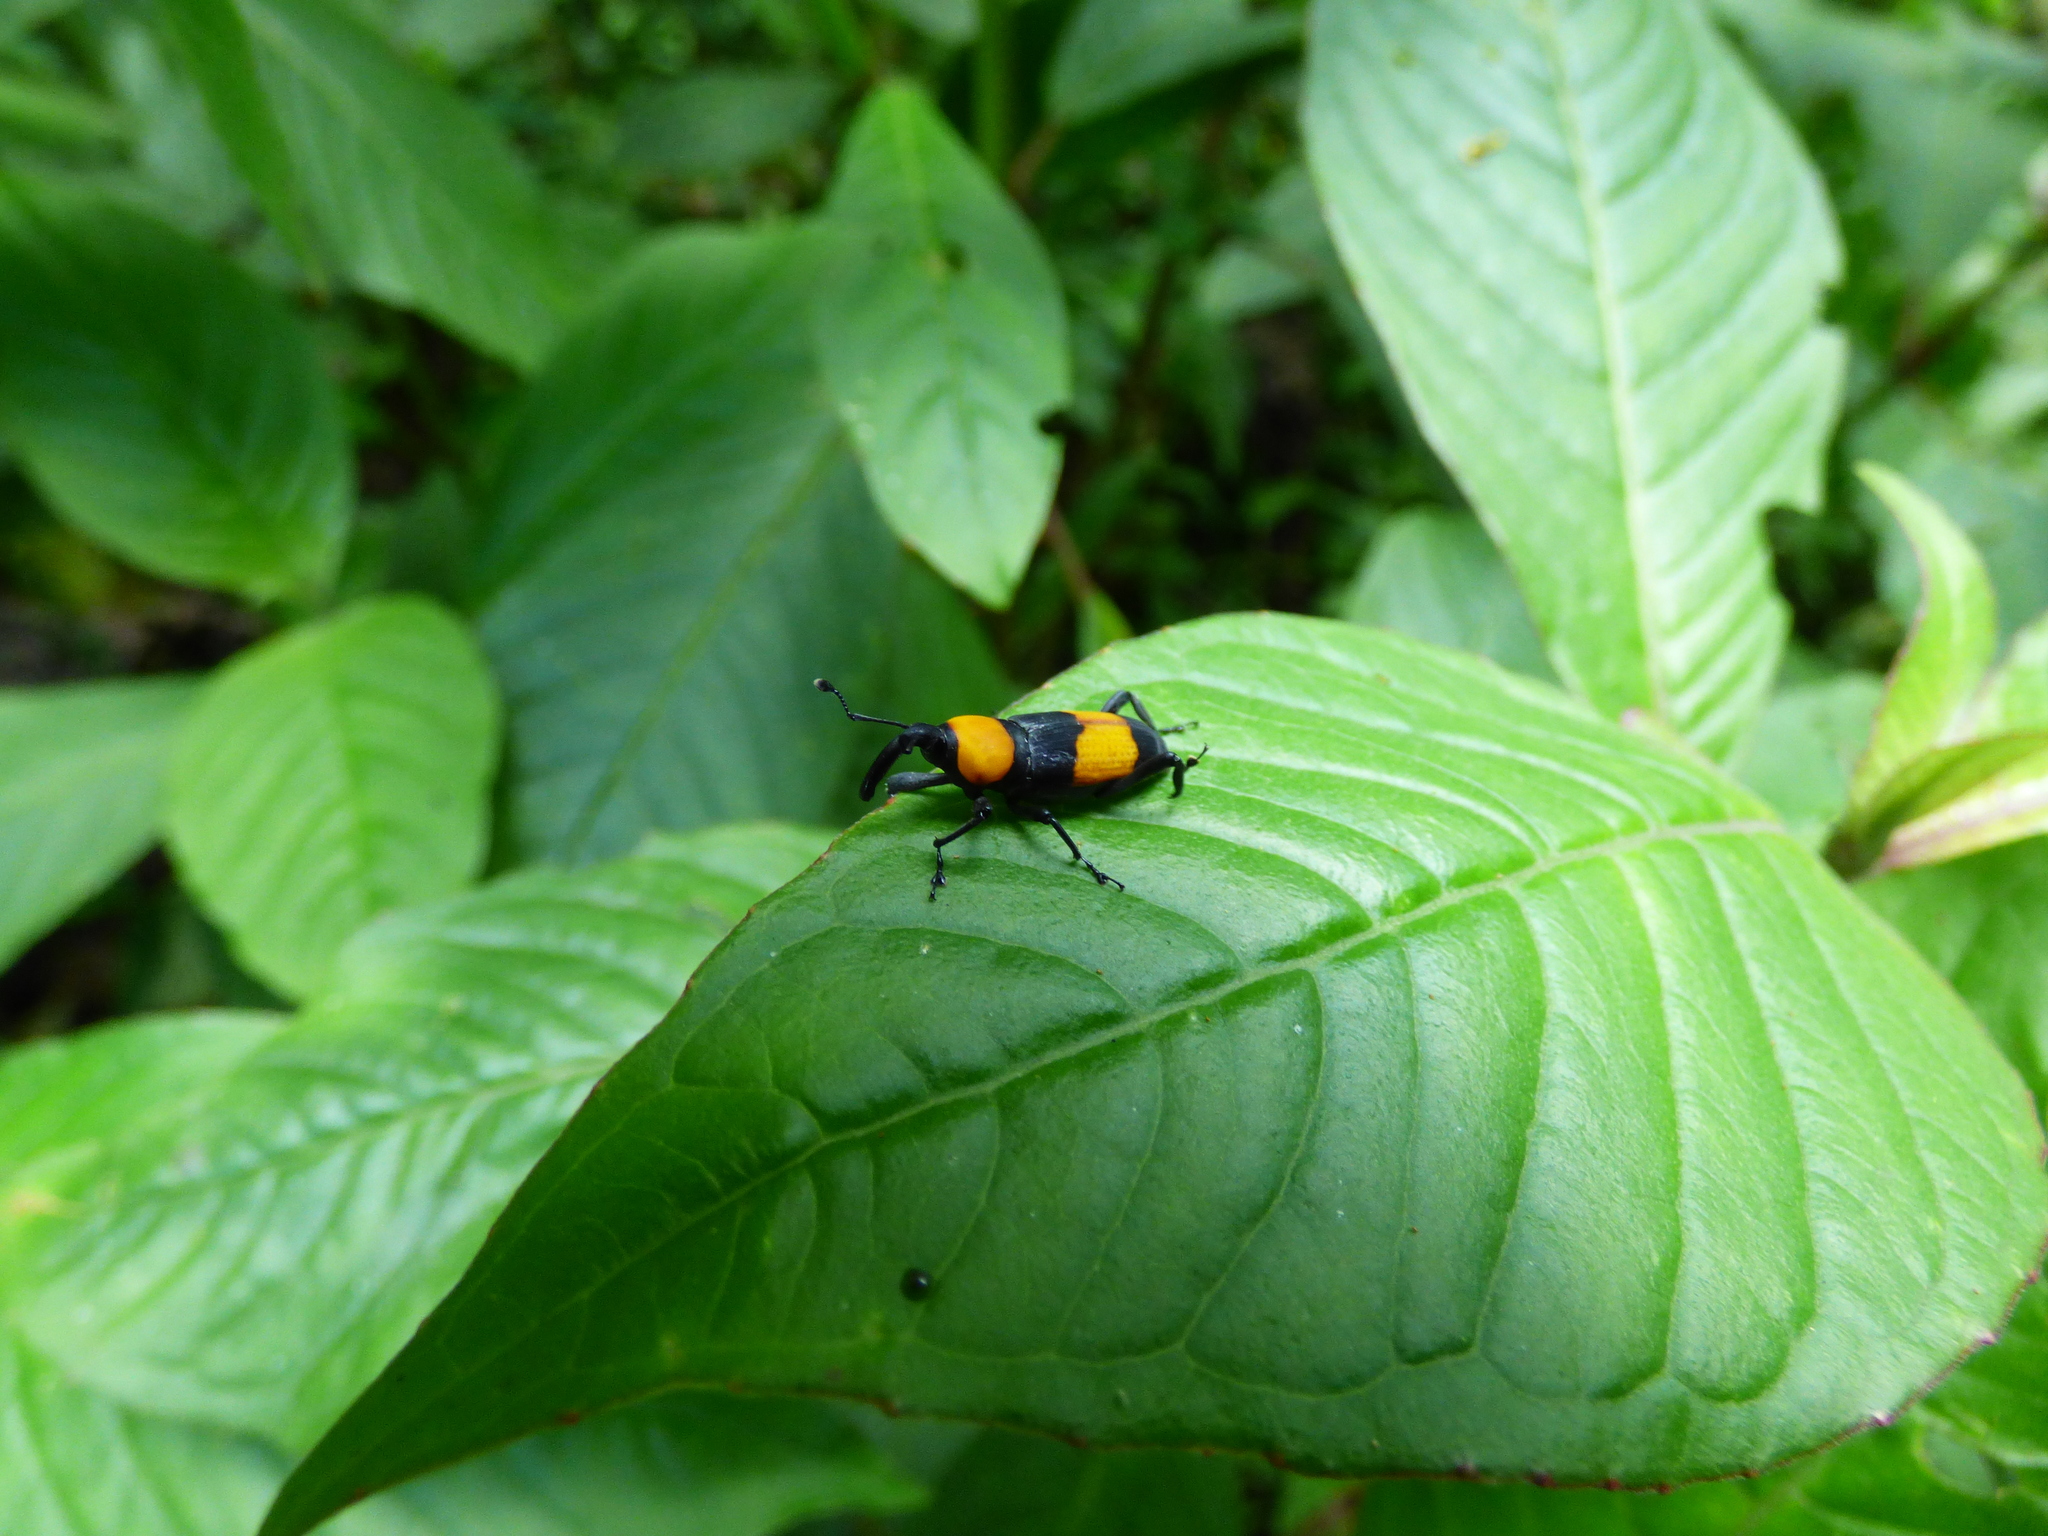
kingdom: Animalia
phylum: Arthropoda
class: Insecta
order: Coleoptera
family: Dryophthoridae
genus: Rhodobaenus
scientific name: Rhodobaenus augustinus
